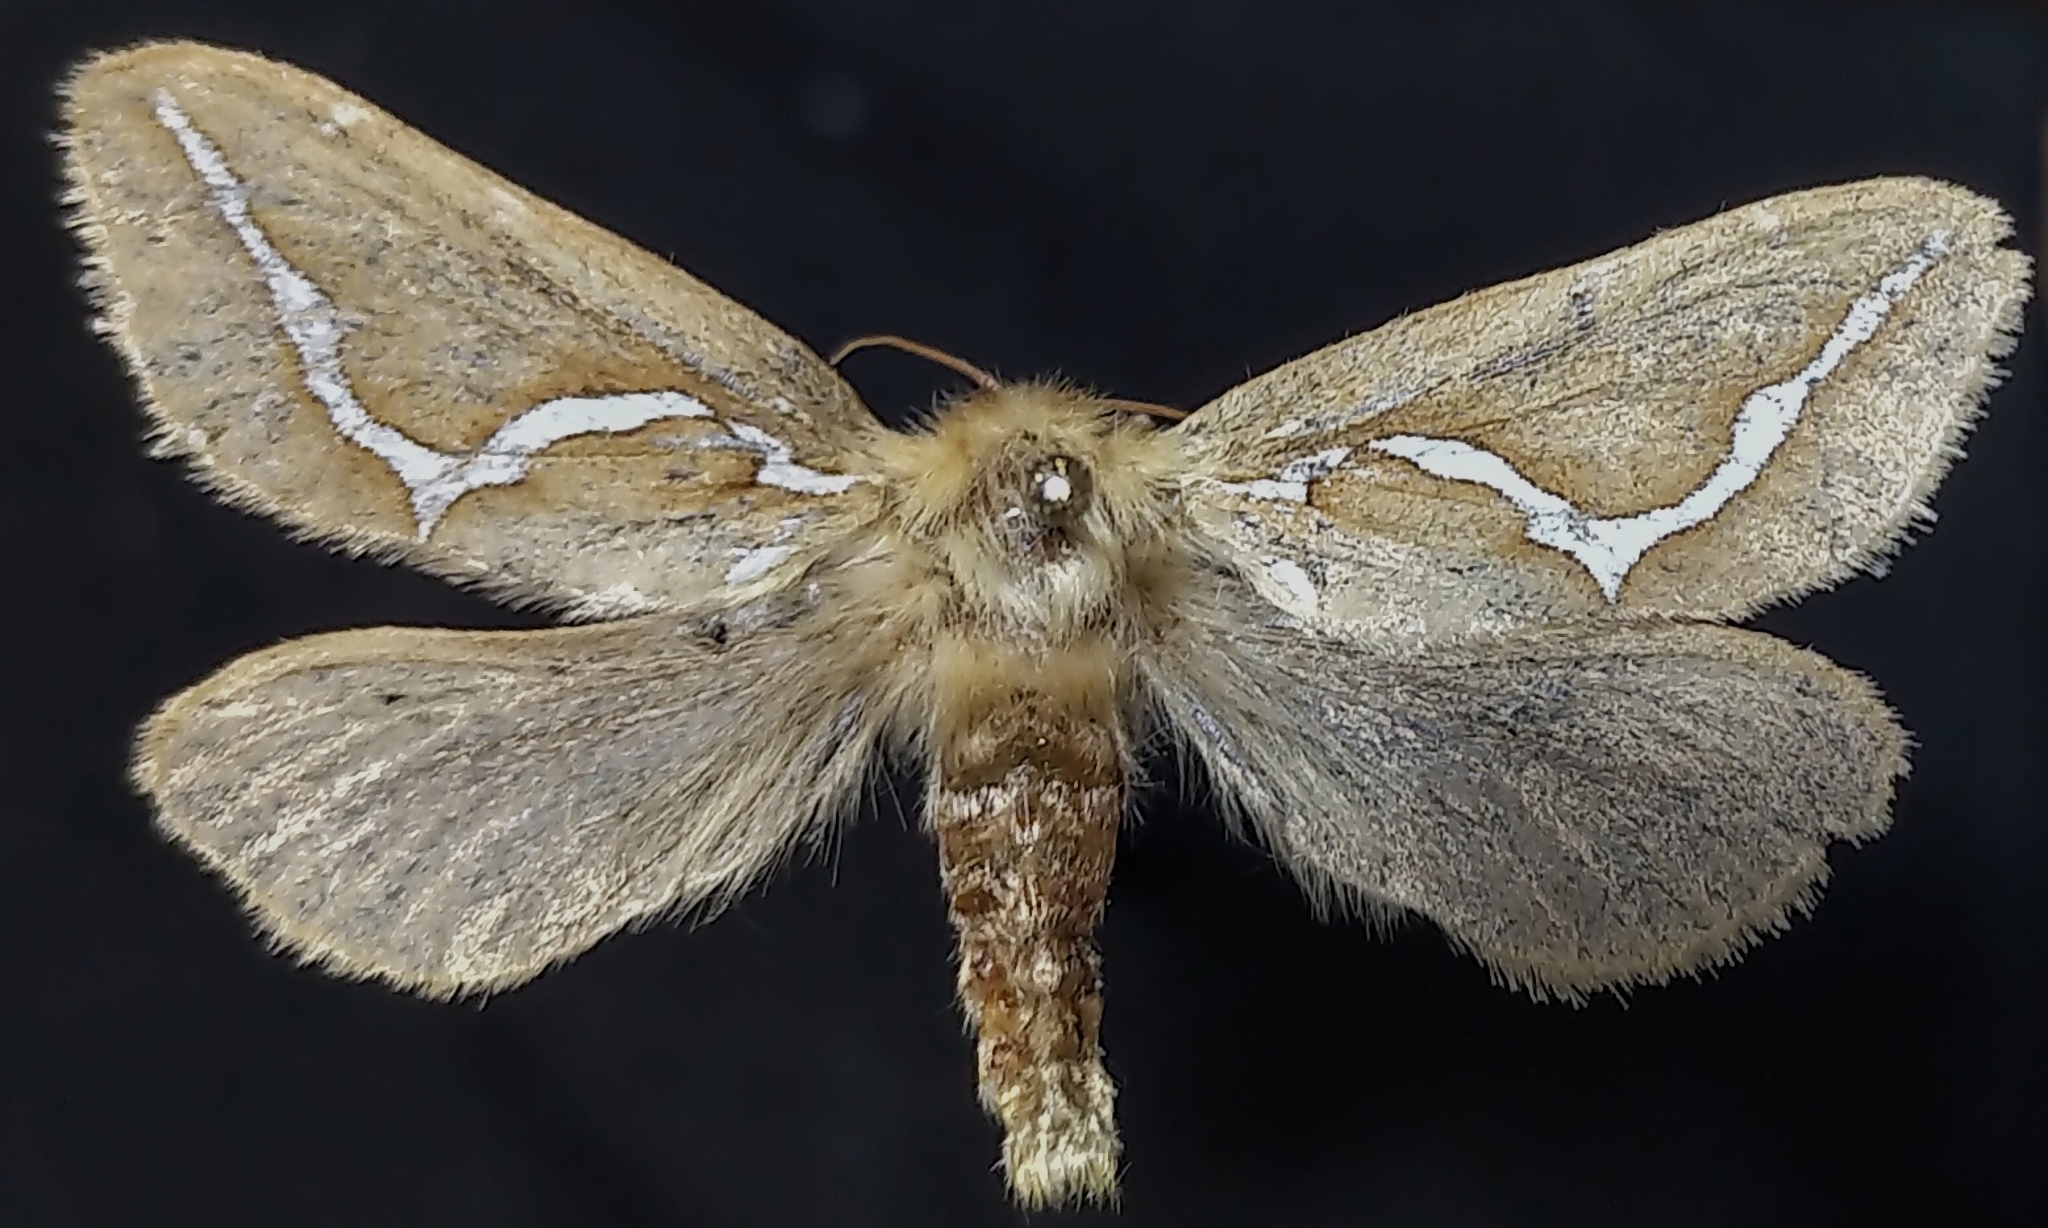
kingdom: Animalia
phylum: Arthropoda
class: Insecta
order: Lepidoptera
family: Hepialidae
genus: Gazoryctra
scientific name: Gazoryctra novigannus
